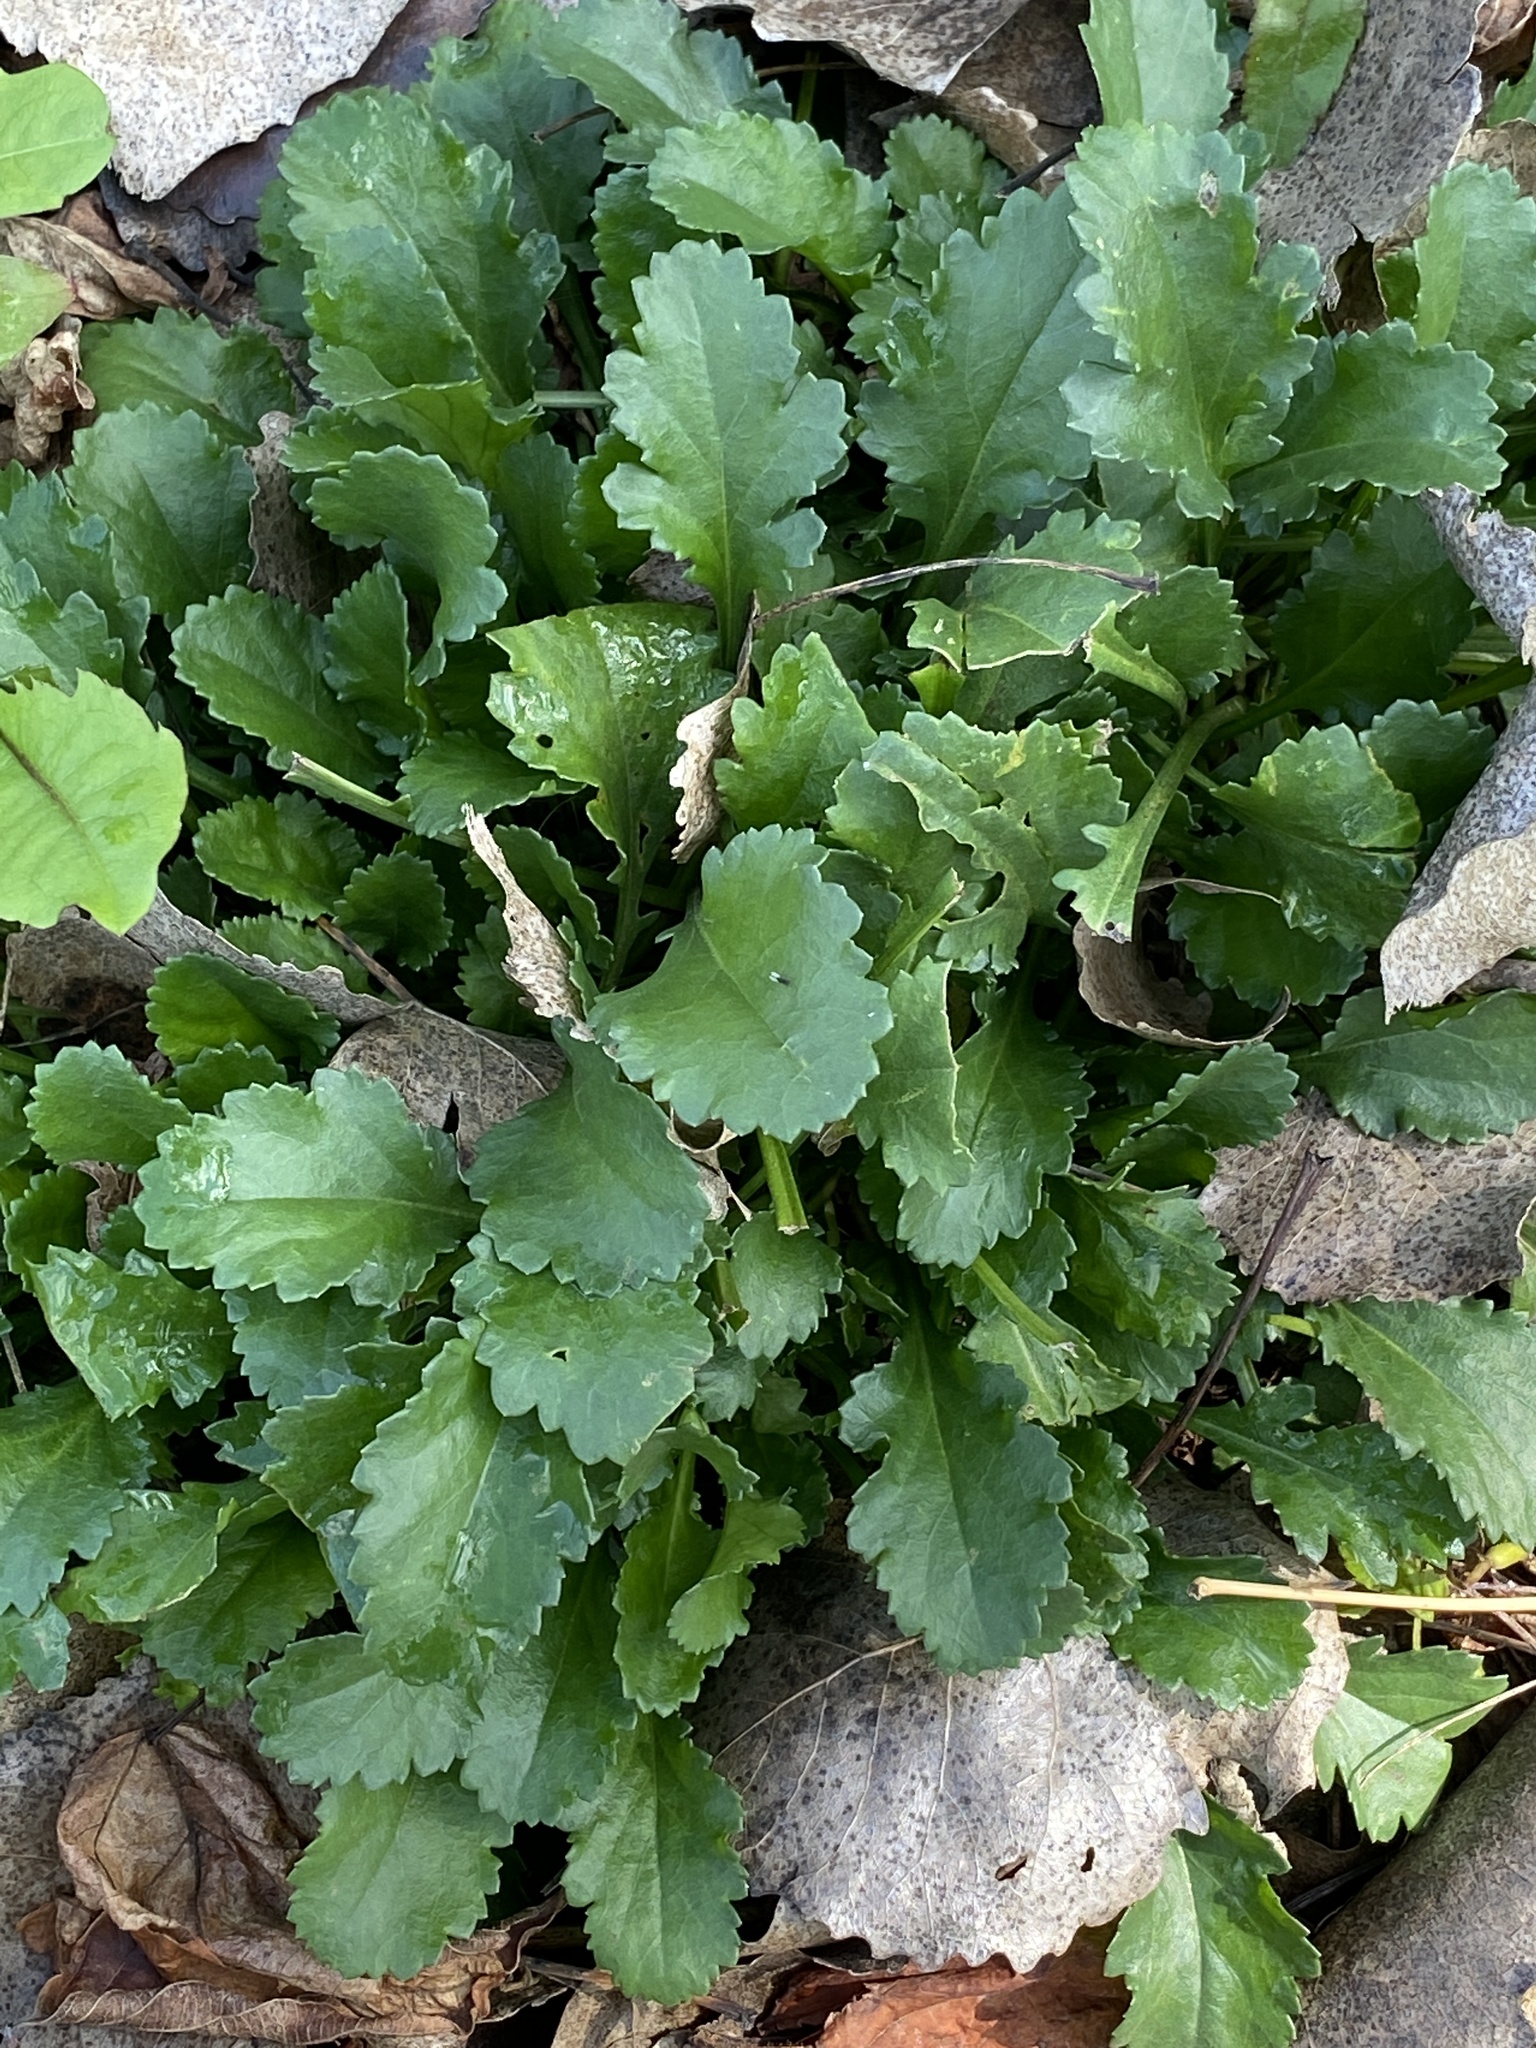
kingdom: Plantae
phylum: Tracheophyta
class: Magnoliopsida
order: Asterales
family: Asteraceae
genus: Leucanthemum
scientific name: Leucanthemum vulgare
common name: Oxeye daisy
